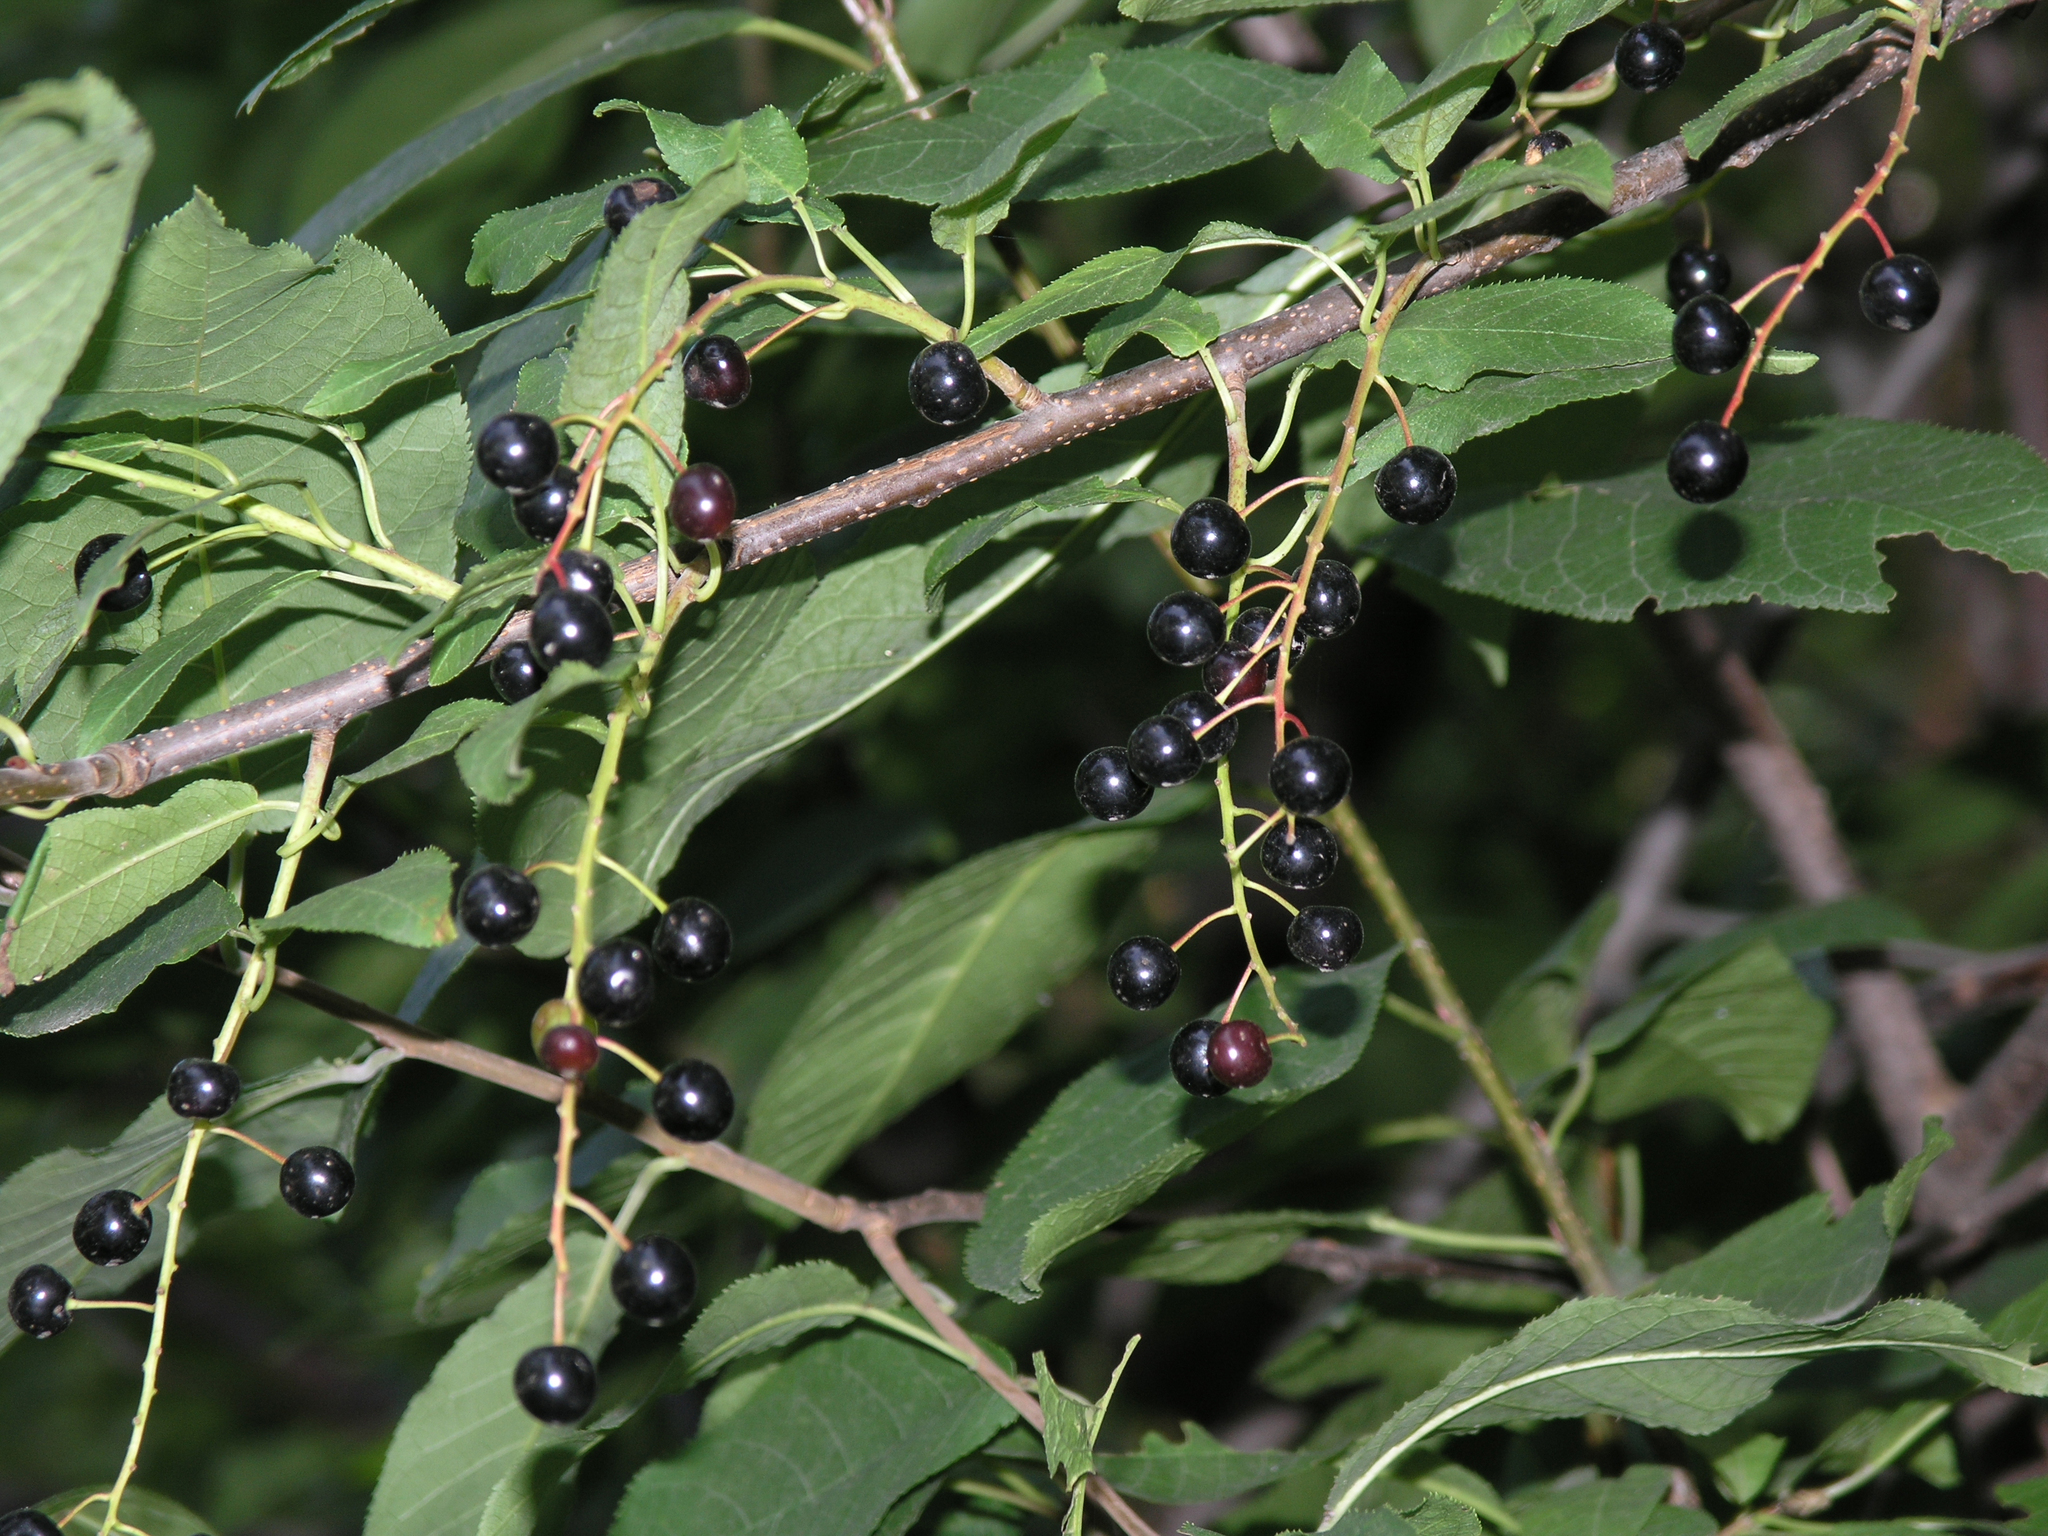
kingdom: Plantae
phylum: Tracheophyta
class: Magnoliopsida
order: Rosales
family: Rosaceae
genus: Prunus
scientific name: Prunus padus
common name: Bird cherry
